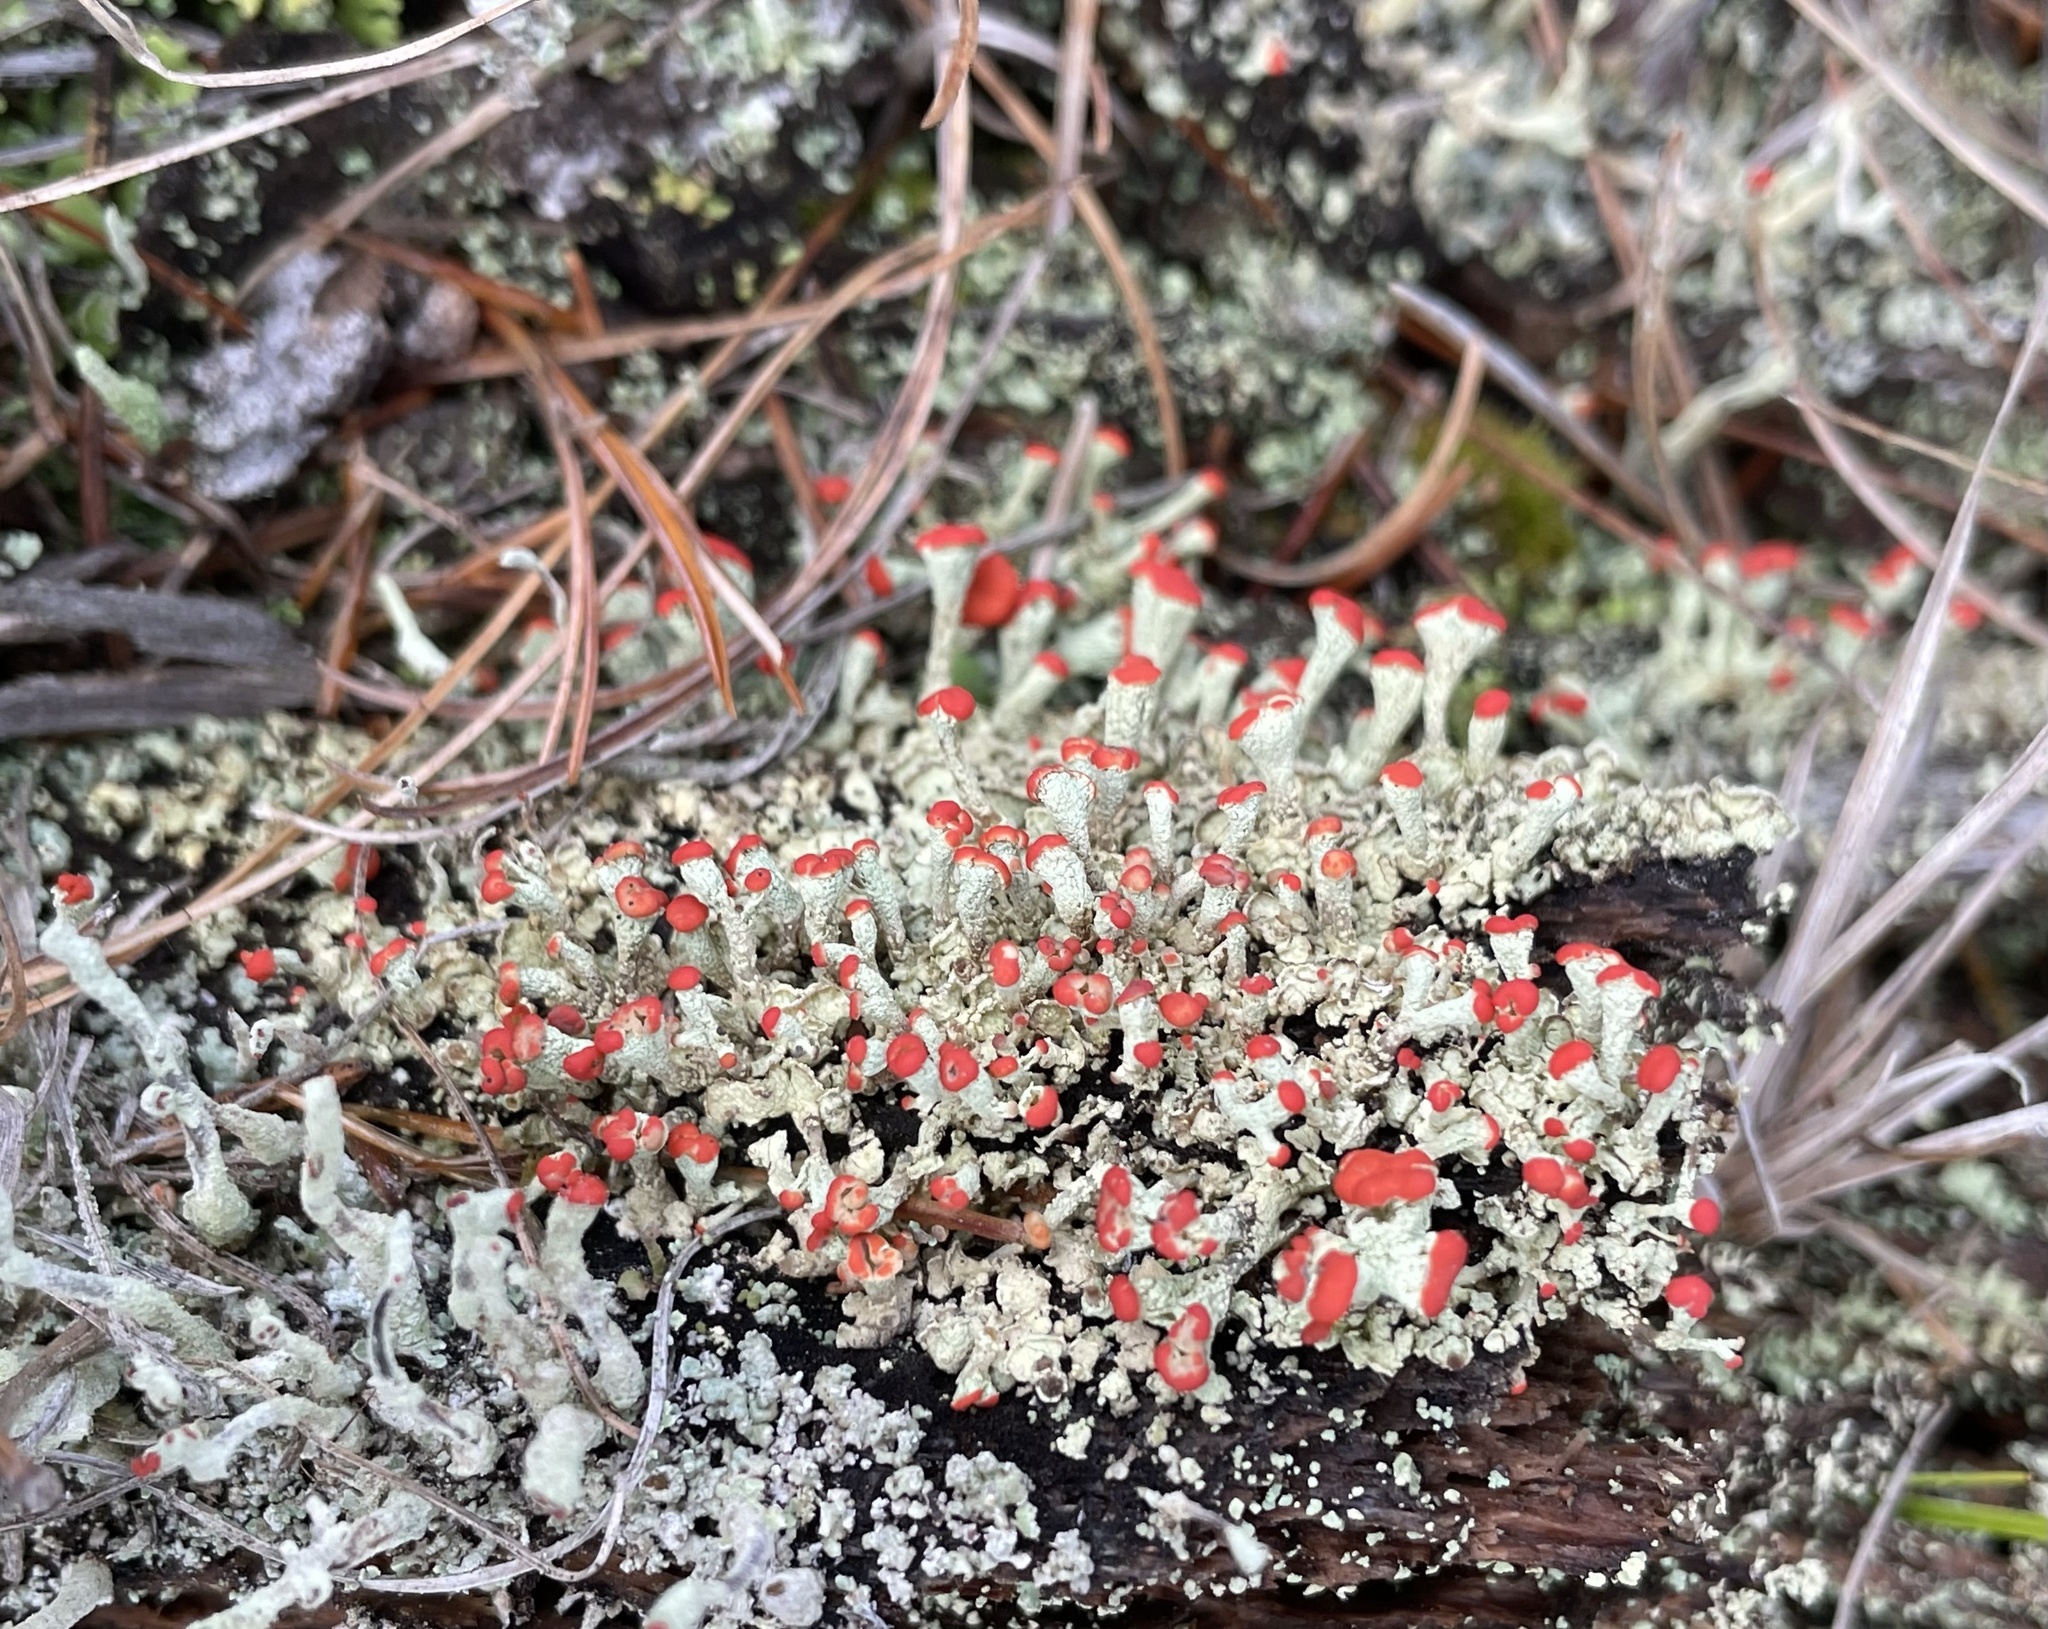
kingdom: Fungi
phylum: Ascomycota
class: Lecanoromycetes
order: Lecanorales
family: Cladoniaceae
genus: Cladonia
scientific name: Cladonia incrassata
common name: Powder-foot british soldiers
